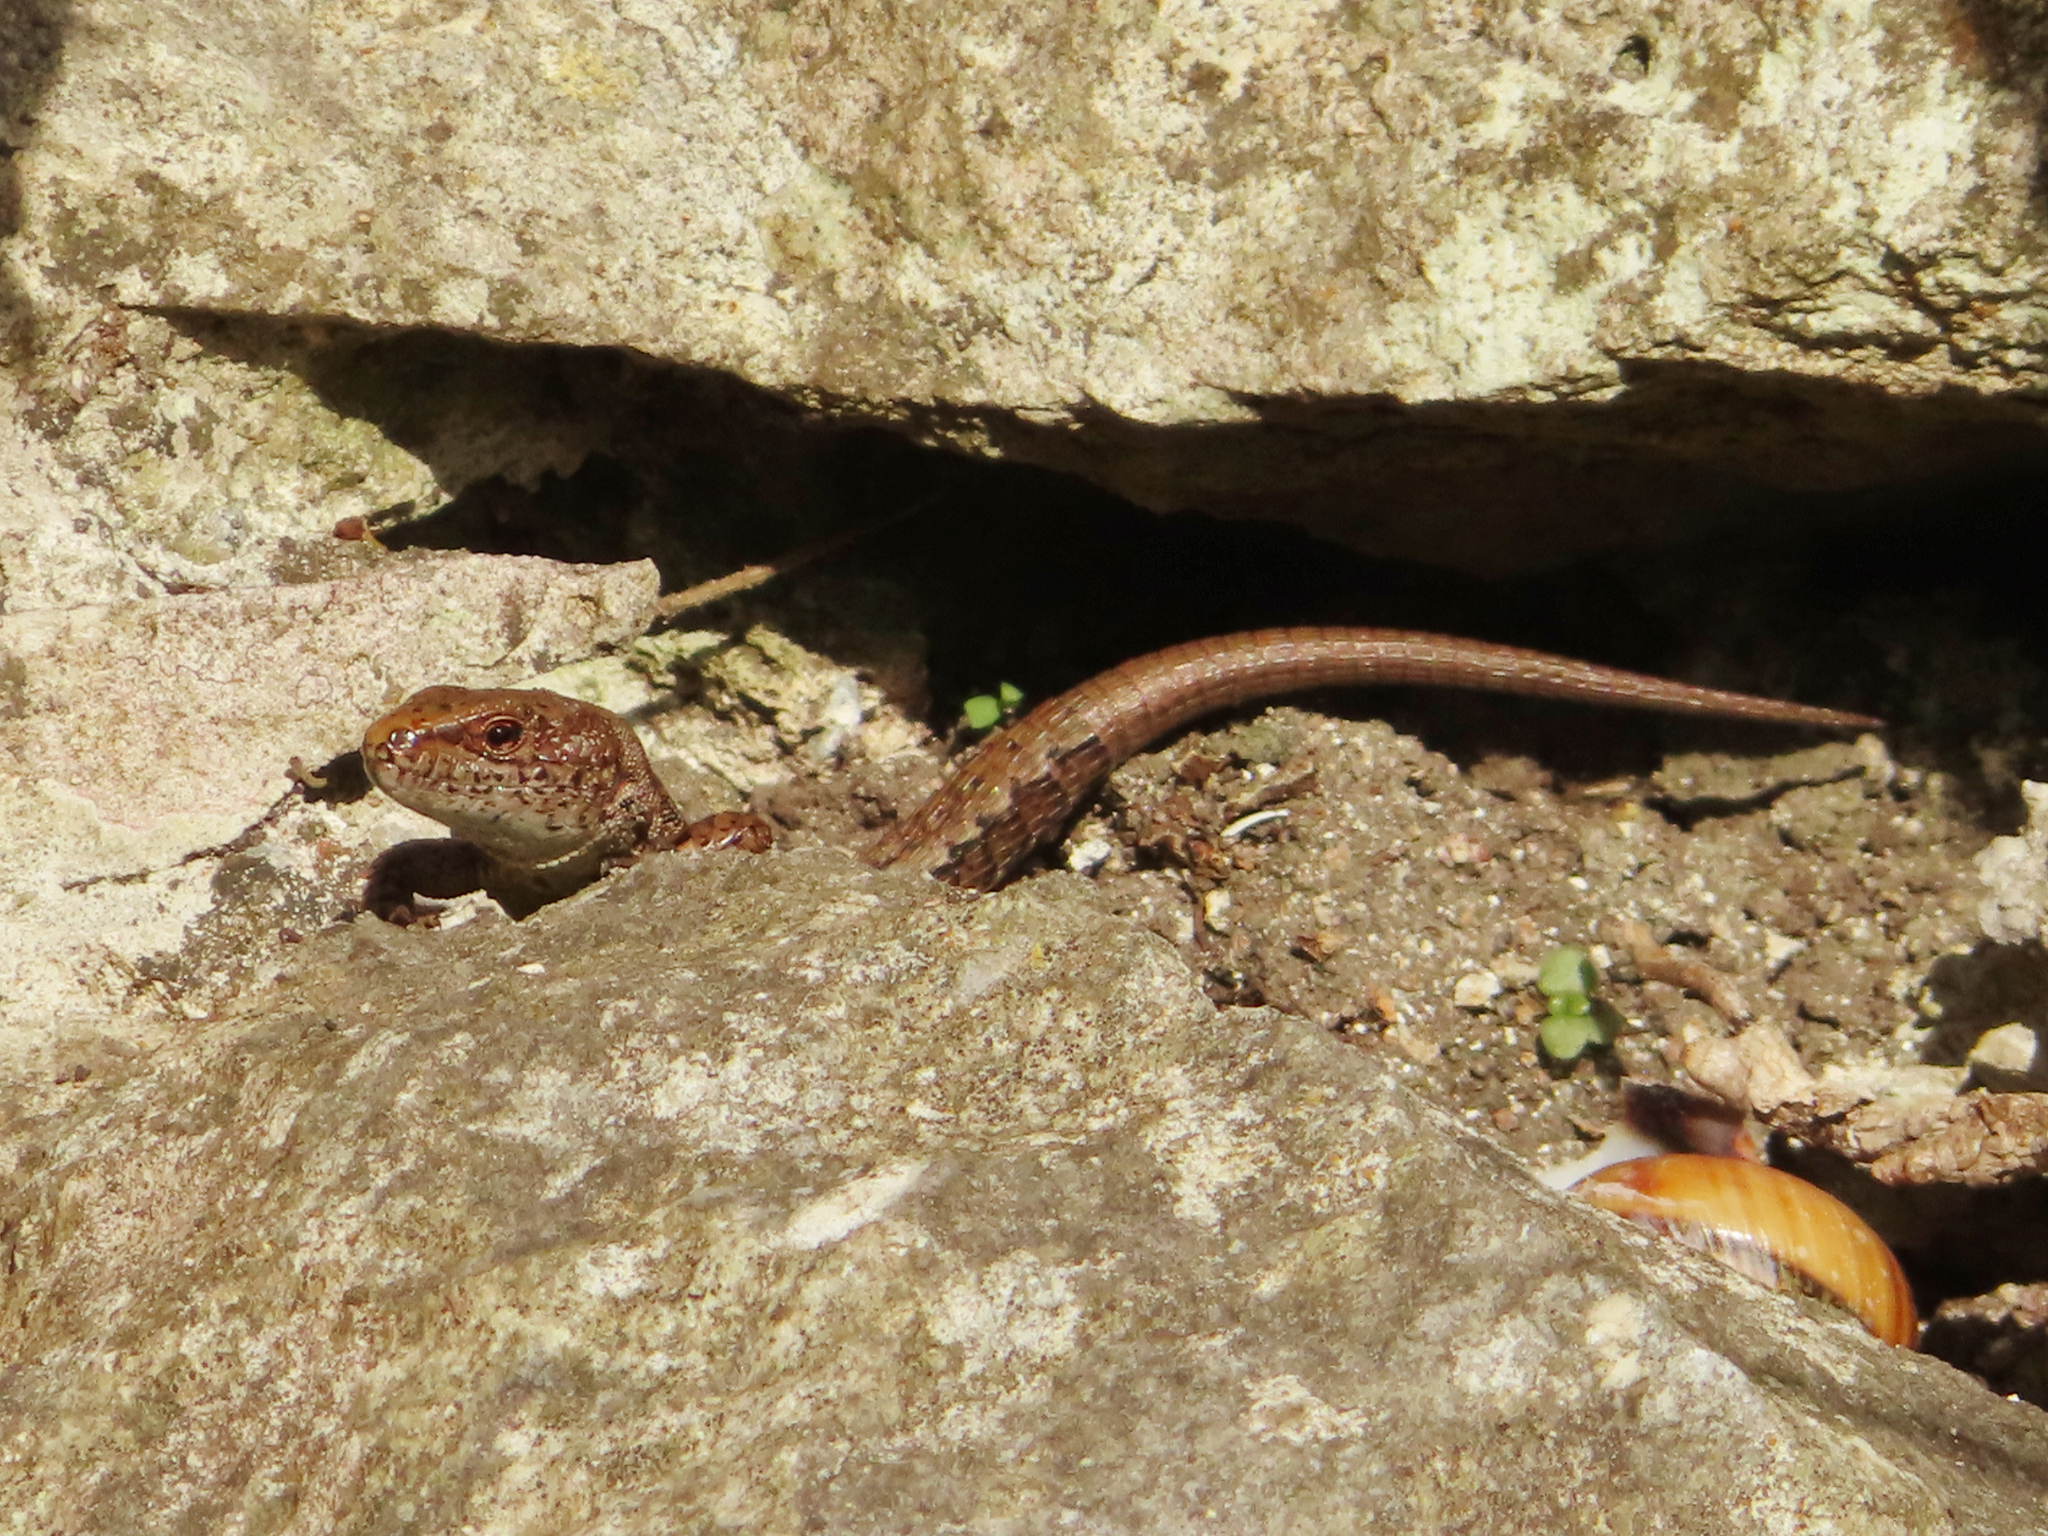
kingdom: Animalia
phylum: Chordata
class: Squamata
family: Lacertidae
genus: Darevskia
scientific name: Darevskia derjugini
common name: Derjugin's lizard
